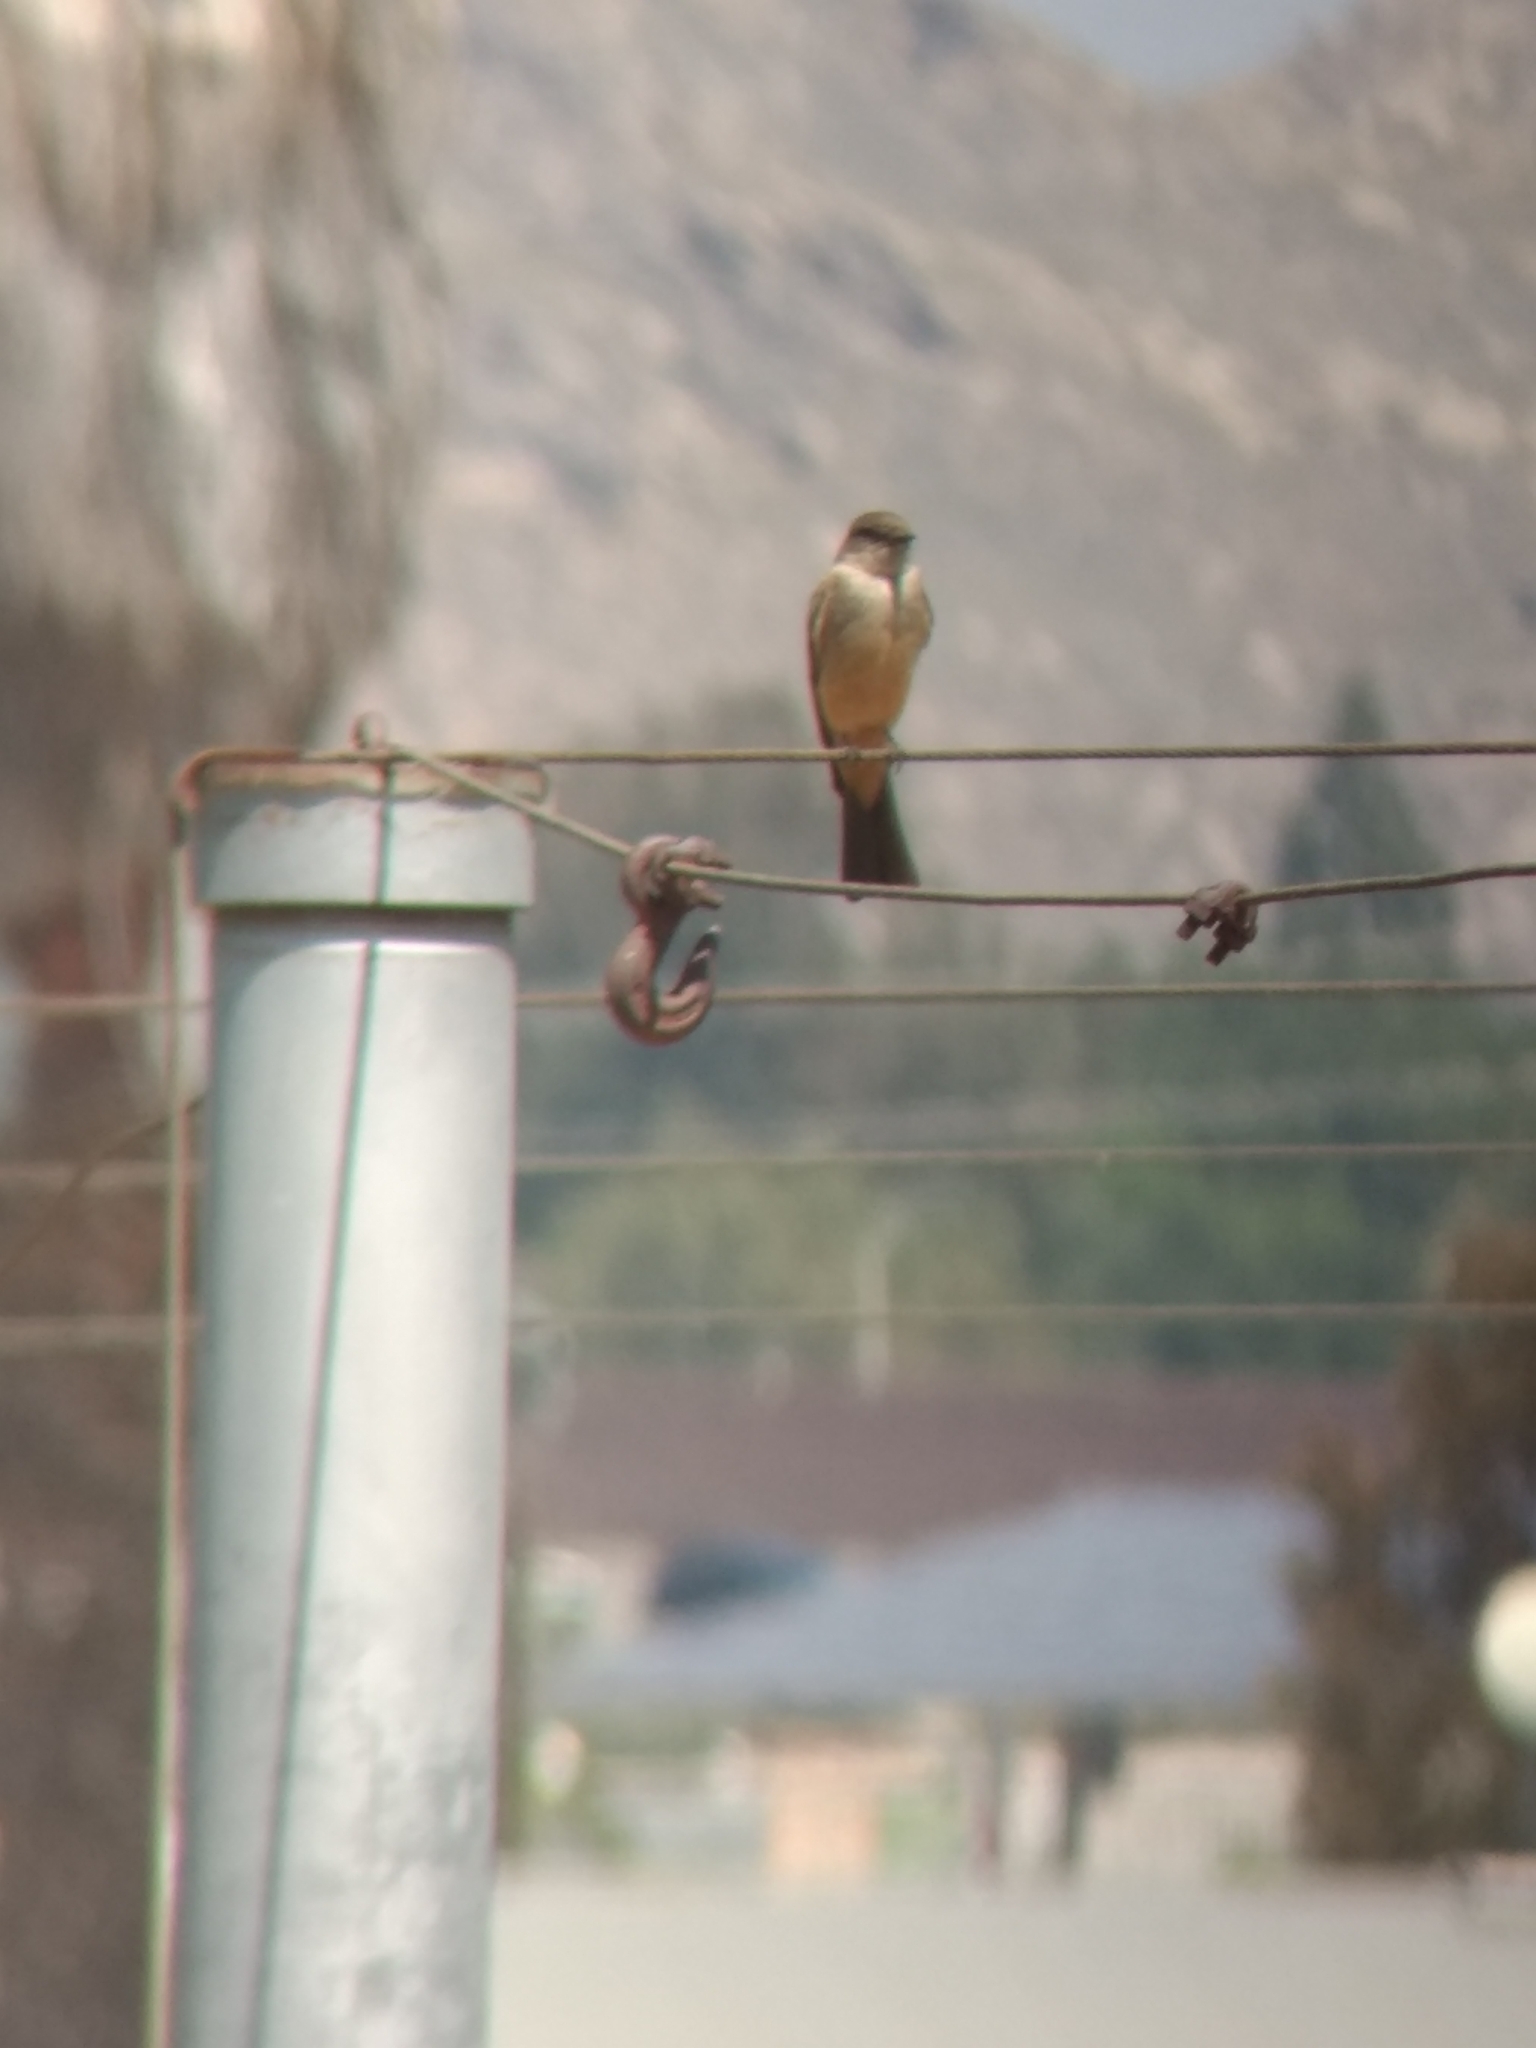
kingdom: Animalia
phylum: Chordata
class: Aves
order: Passeriformes
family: Tyrannidae
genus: Sayornis
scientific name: Sayornis saya
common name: Say's phoebe
